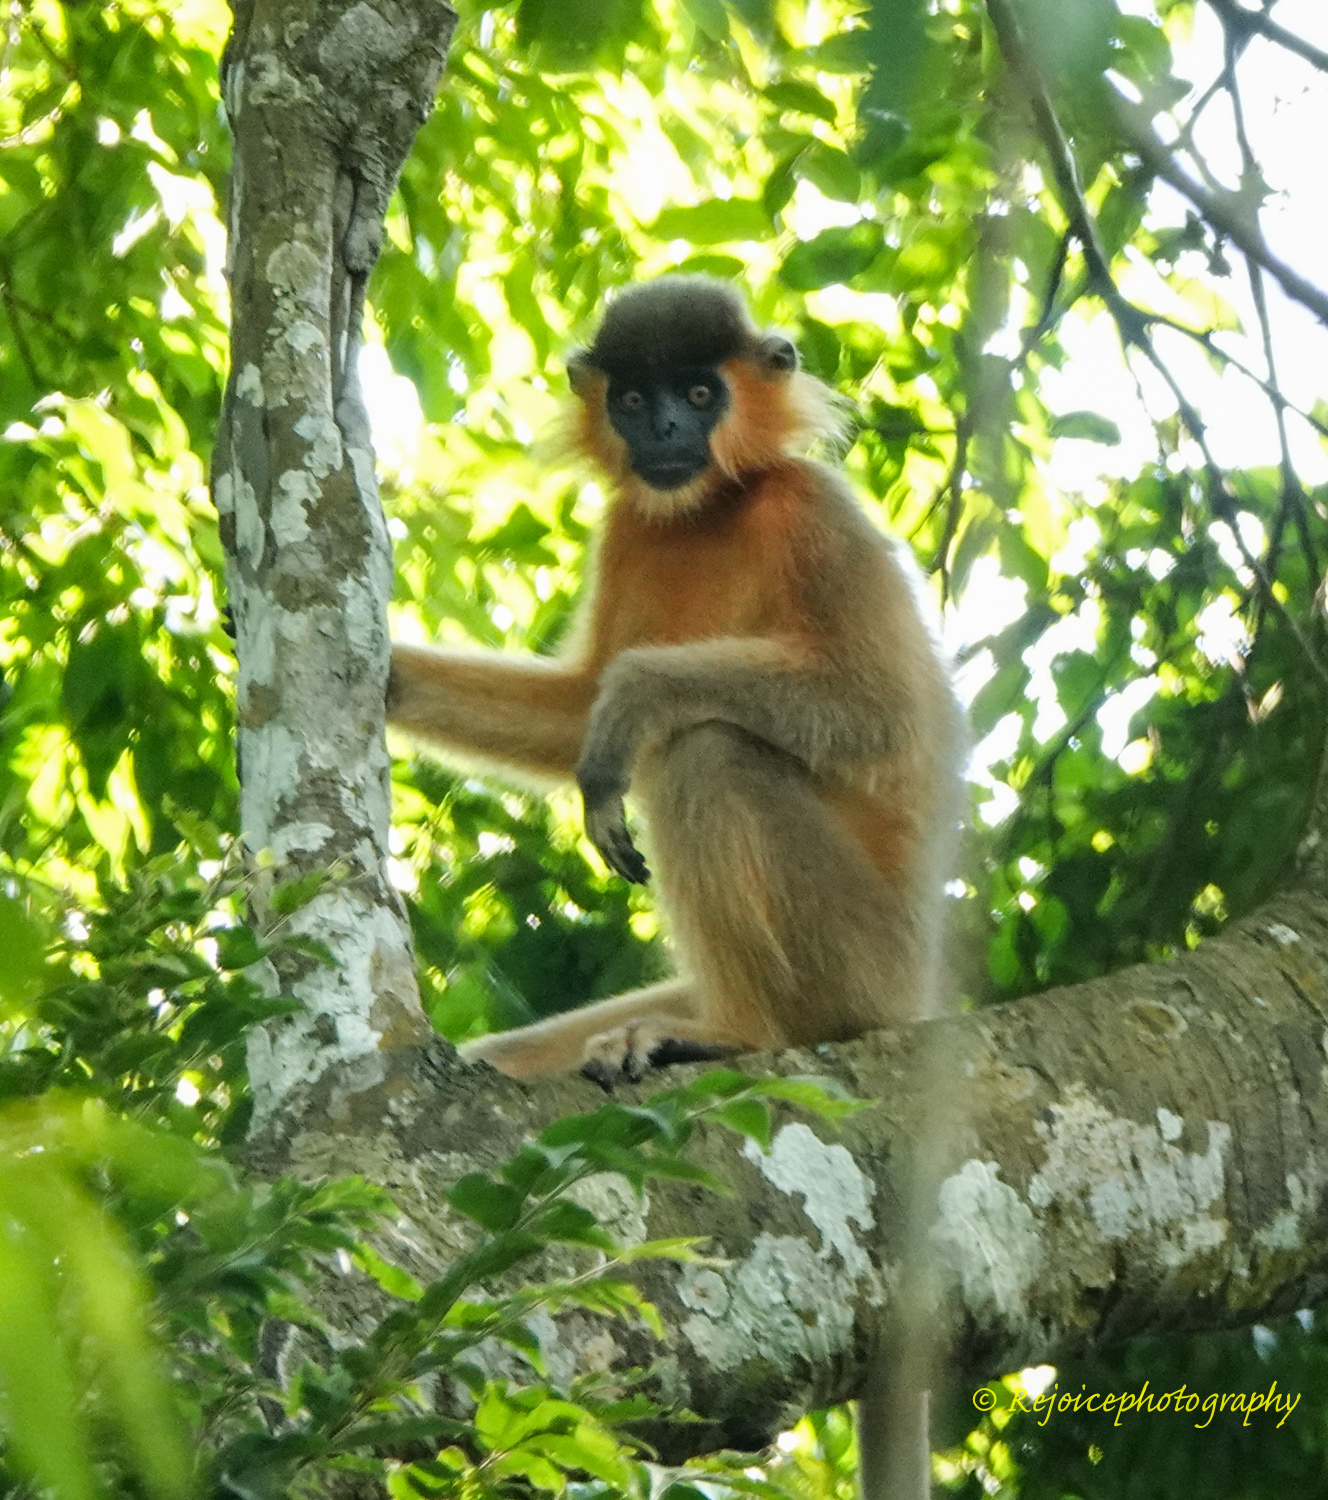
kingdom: Animalia
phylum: Chordata
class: Mammalia
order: Primates
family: Cercopithecidae
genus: Trachypithecus
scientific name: Trachypithecus pileatus
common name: Capped langur
